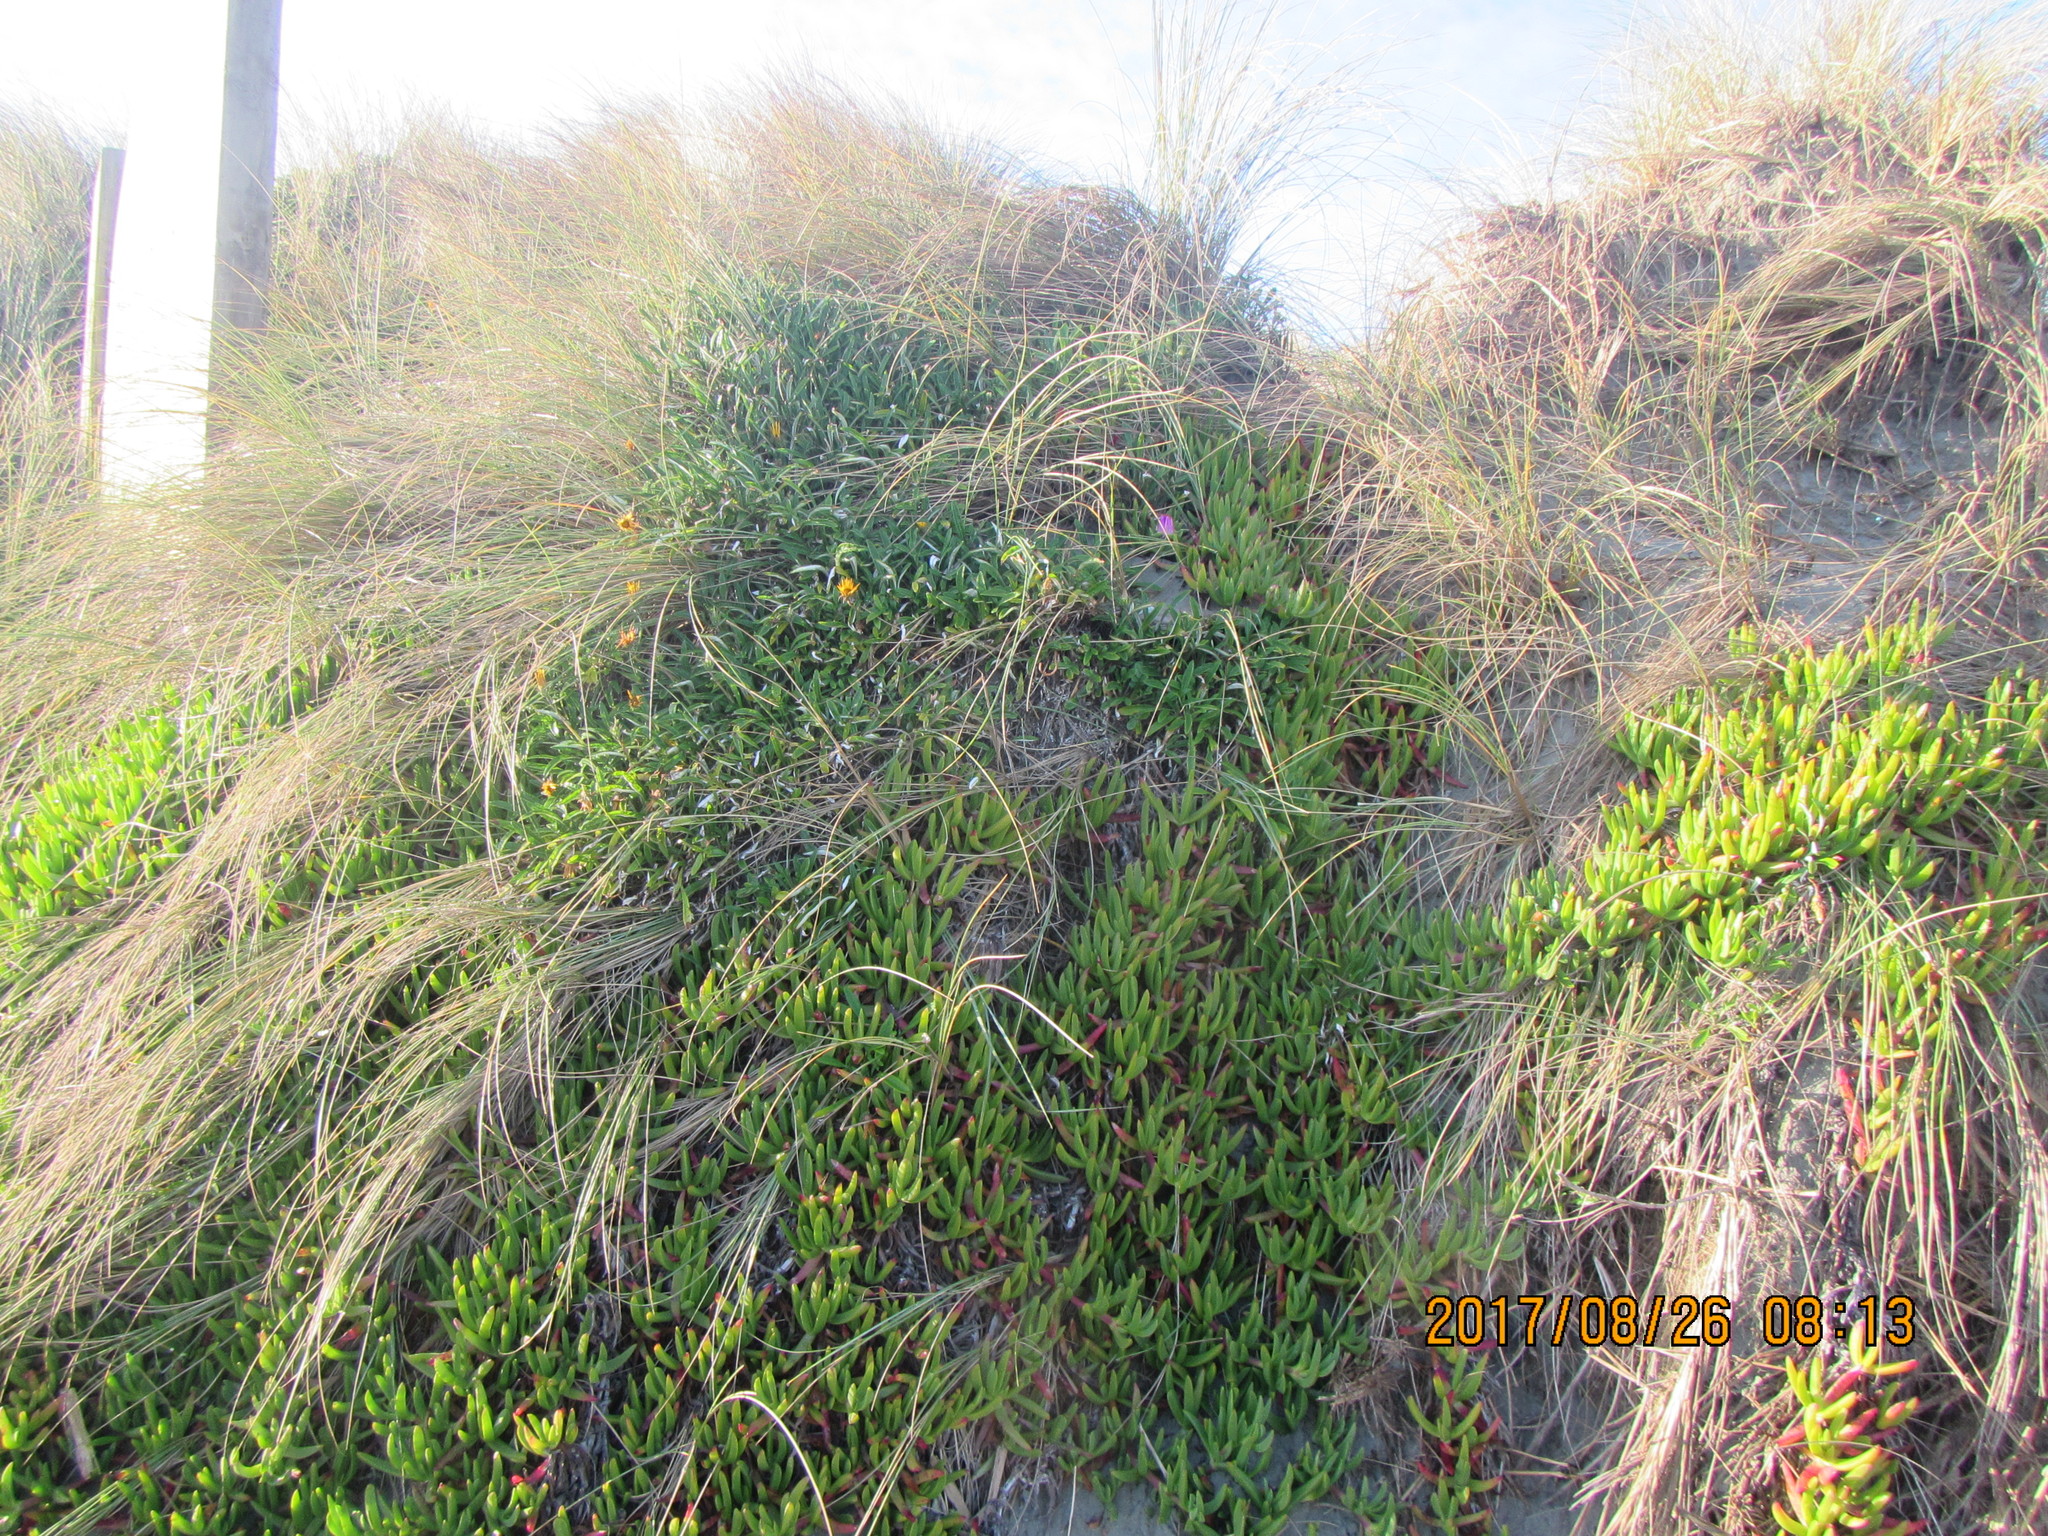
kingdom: Plantae
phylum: Tracheophyta
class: Magnoliopsida
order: Caryophyllales
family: Aizoaceae
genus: Carpobrotus
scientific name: Carpobrotus chilensis
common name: Sea fig
